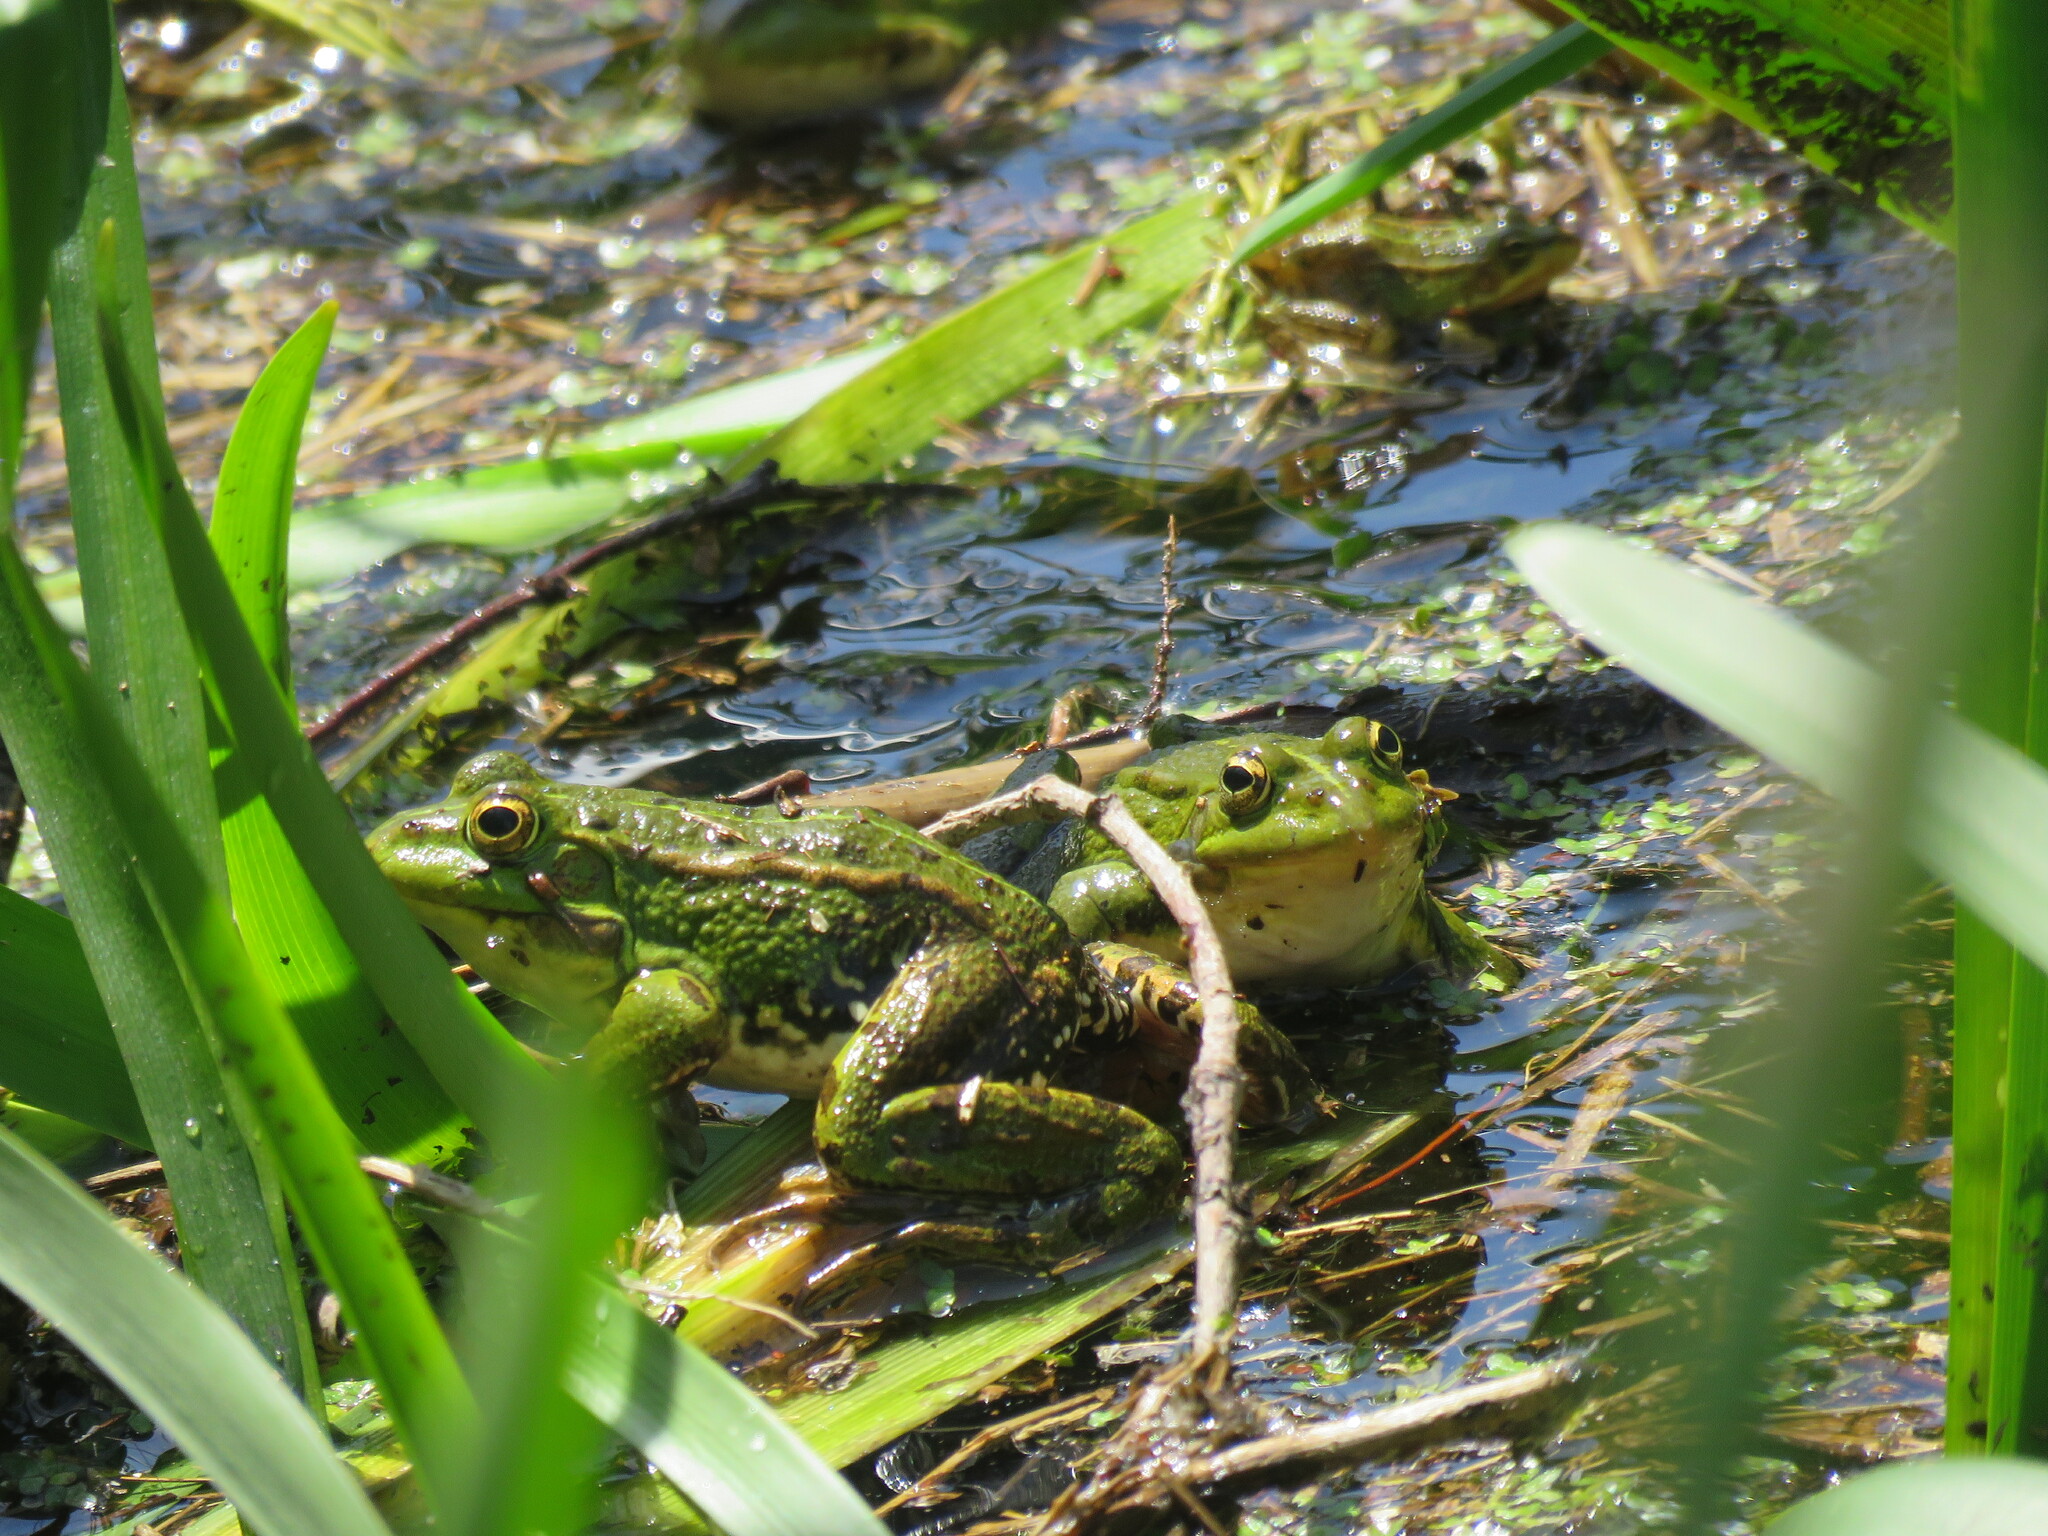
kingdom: Animalia
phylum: Chordata
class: Amphibia
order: Anura
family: Ranidae
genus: Pelophylax
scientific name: Pelophylax perezi
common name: Perez's frog
